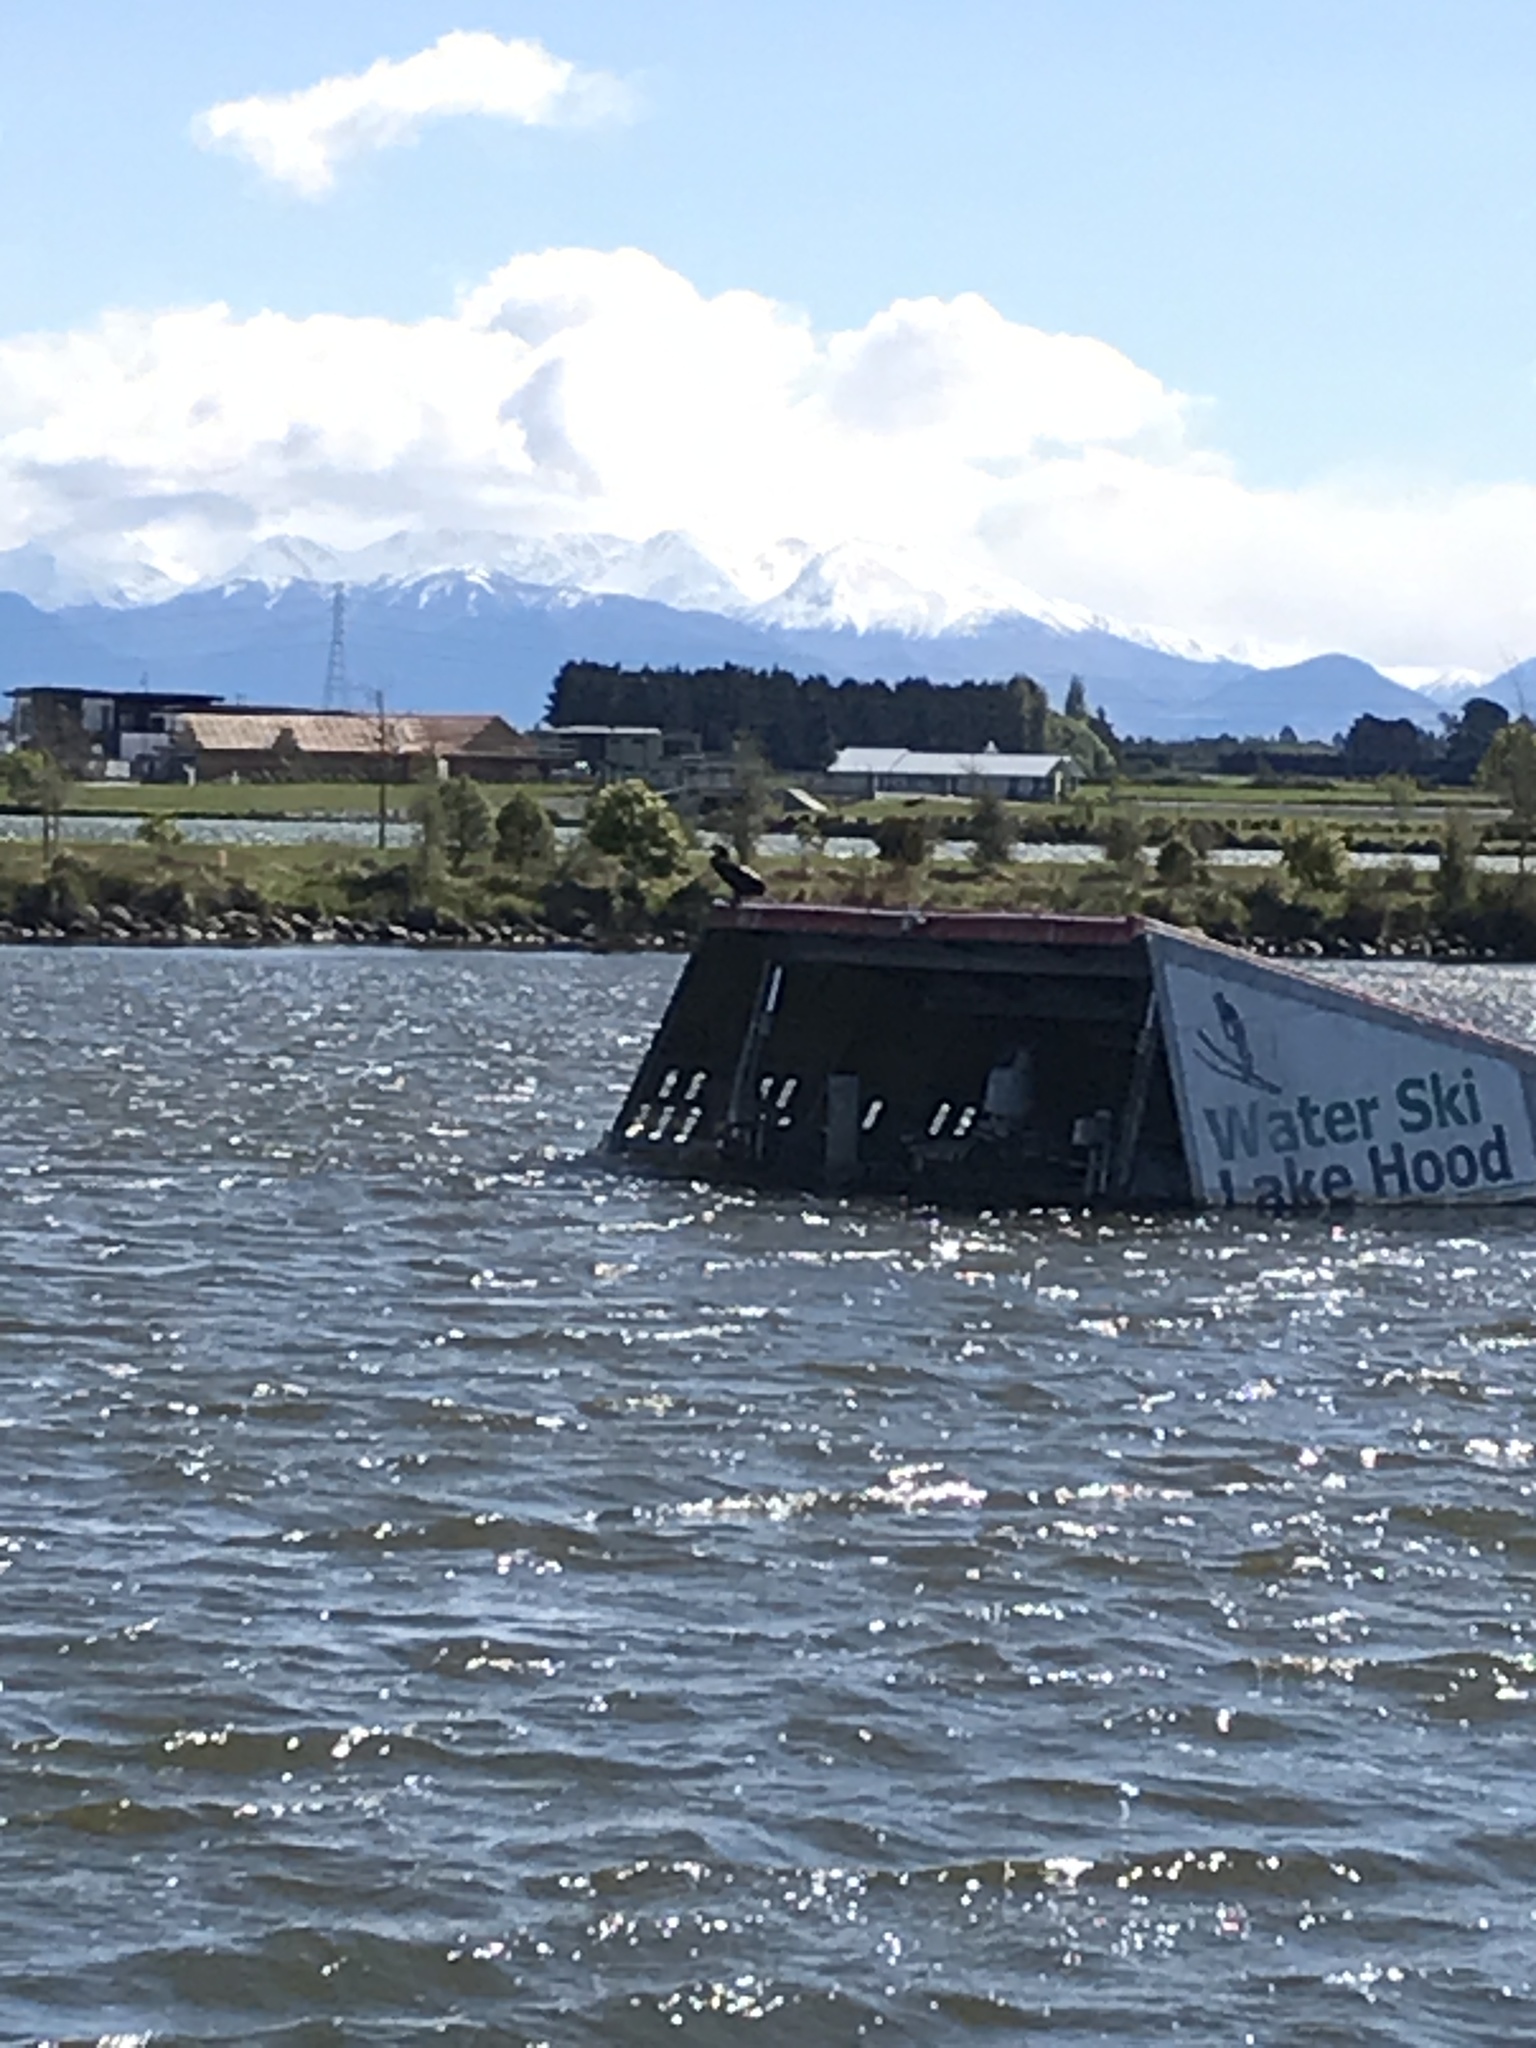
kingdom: Animalia
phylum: Chordata
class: Aves
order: Suliformes
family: Phalacrocoracidae
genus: Phalacrocorax
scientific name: Phalacrocorax carbo
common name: Great cormorant
